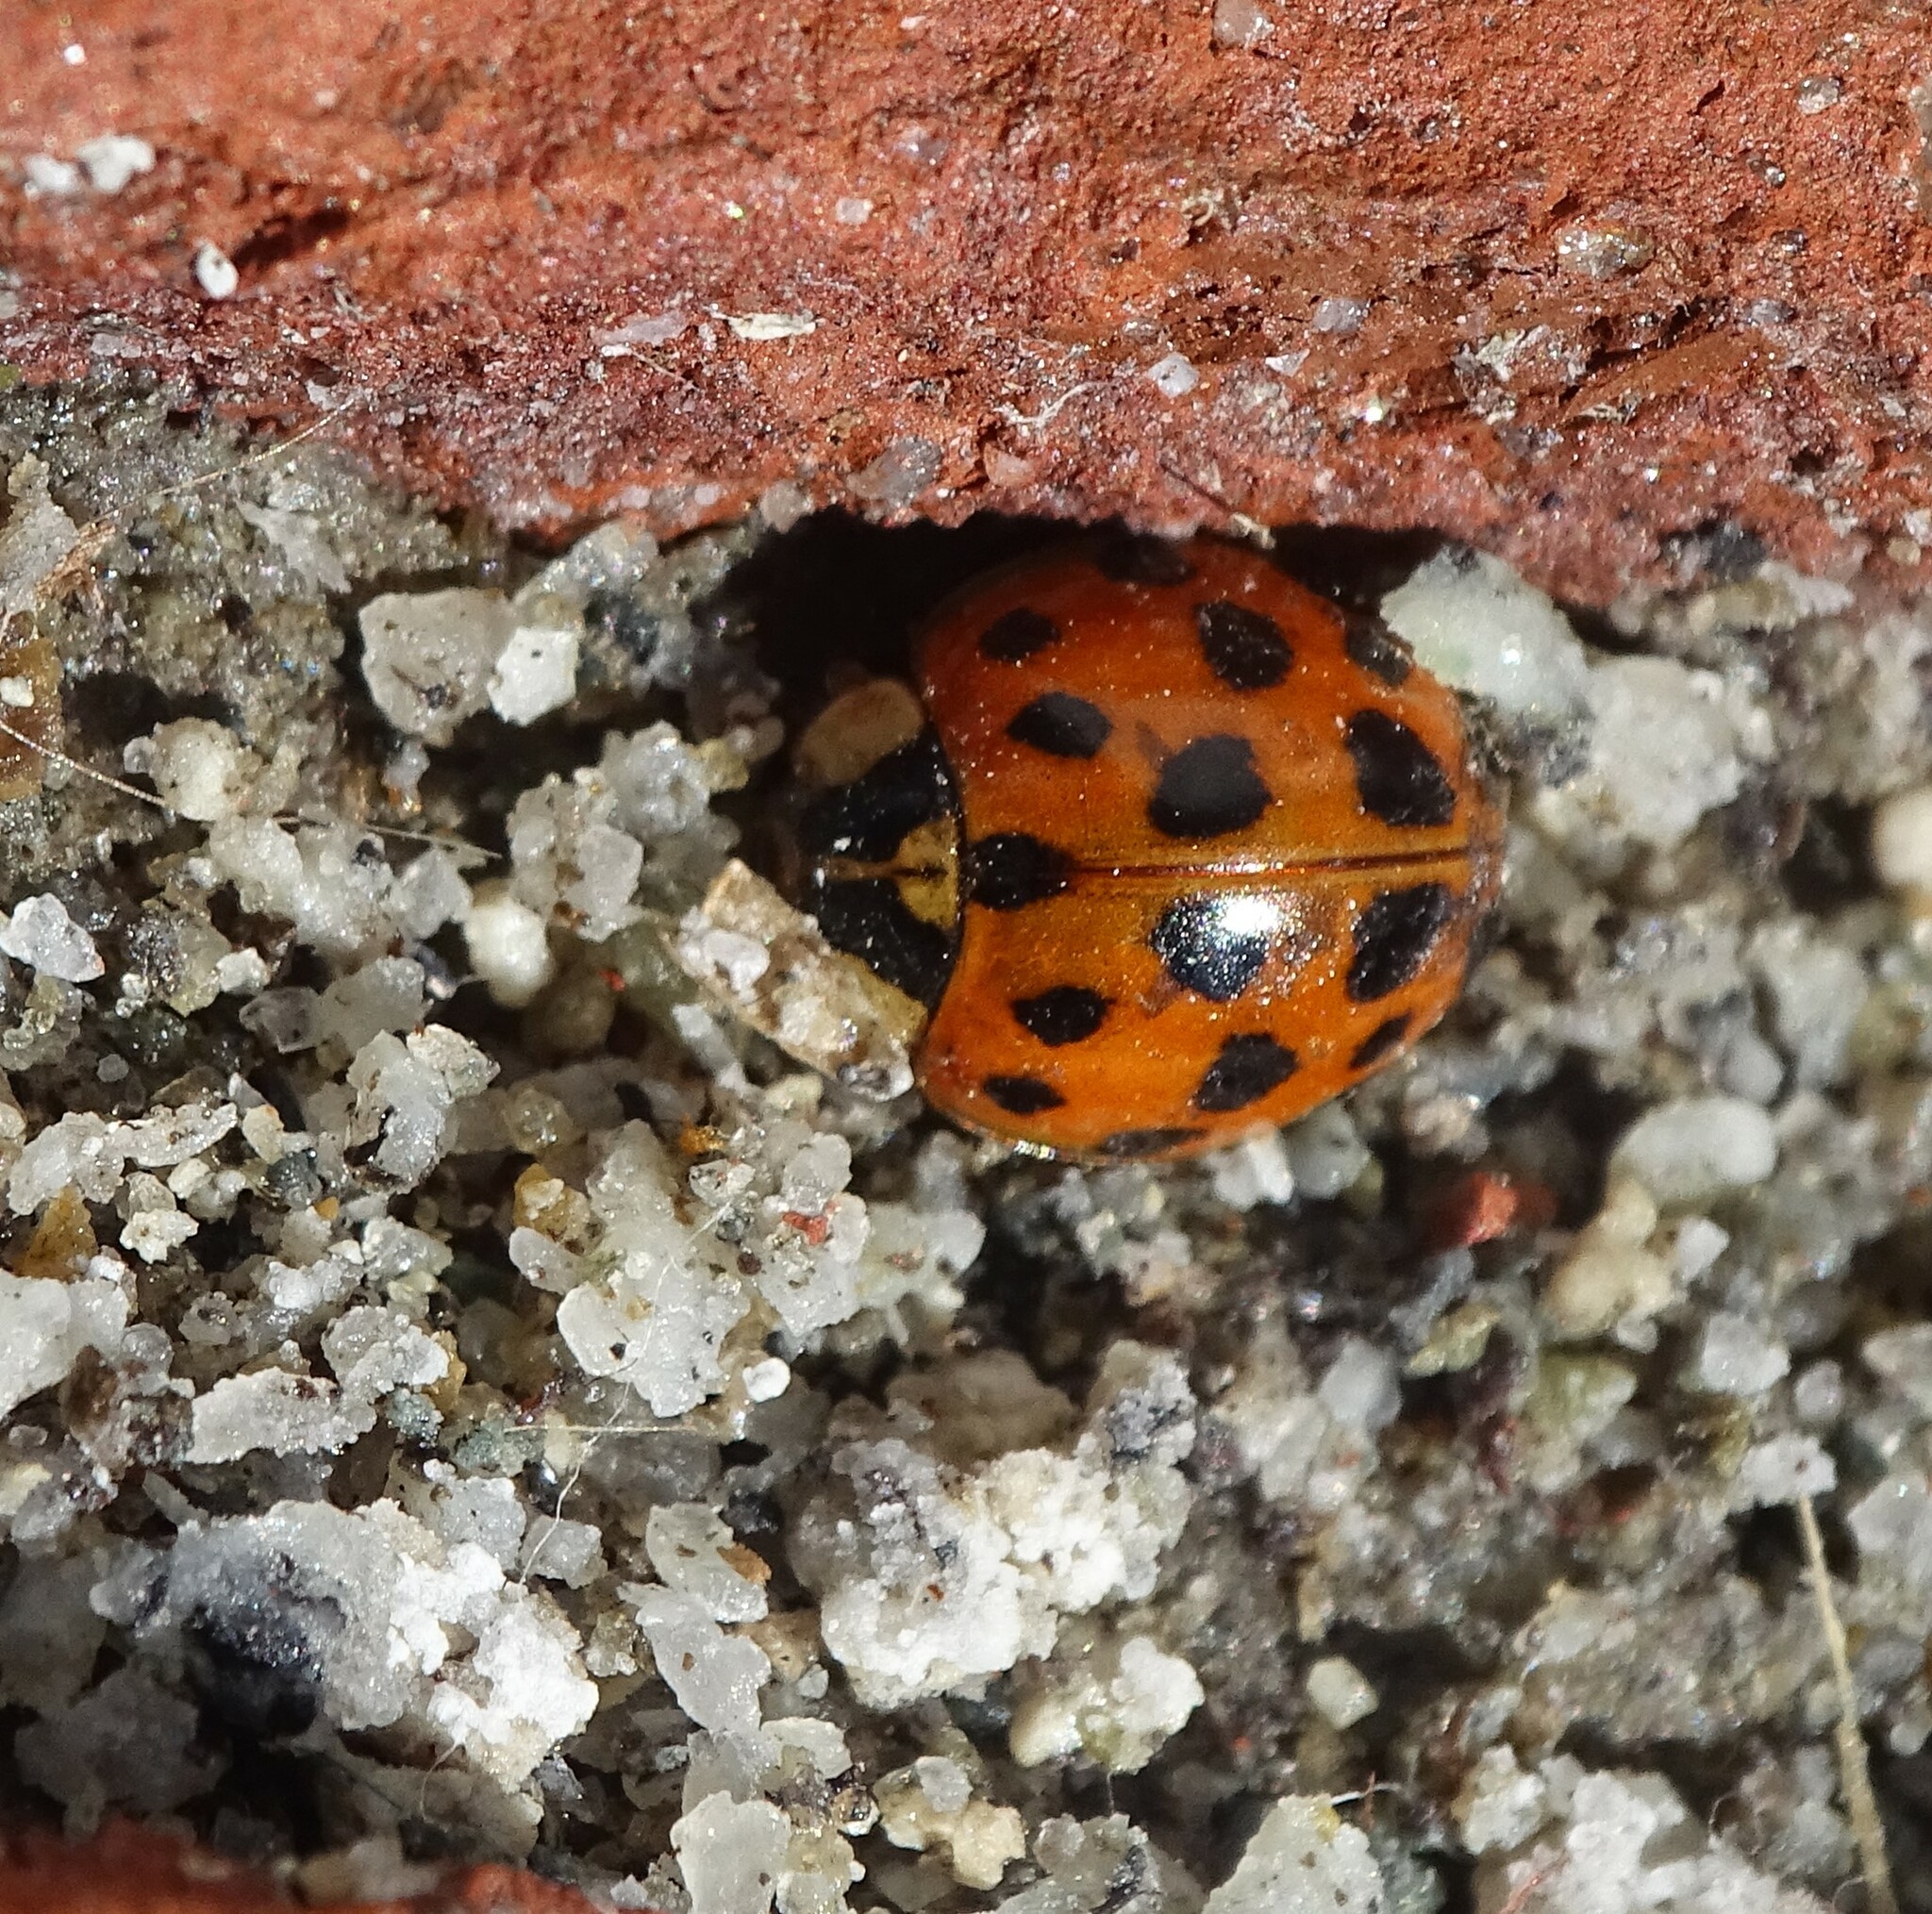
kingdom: Animalia
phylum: Arthropoda
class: Insecta
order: Coleoptera
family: Coccinellidae
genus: Harmonia
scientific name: Harmonia axyridis
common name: Harlequin ladybird
